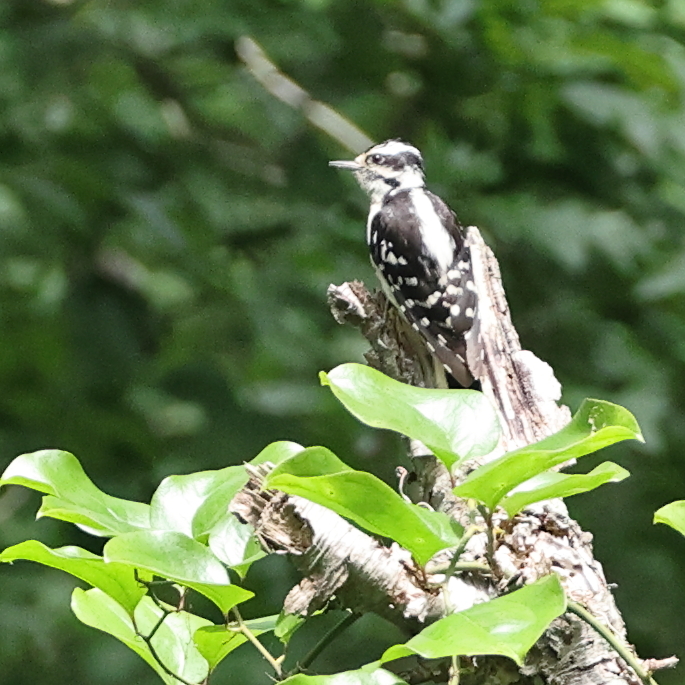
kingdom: Animalia
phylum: Chordata
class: Aves
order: Piciformes
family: Picidae
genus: Dryobates
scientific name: Dryobates pubescens
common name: Downy woodpecker
